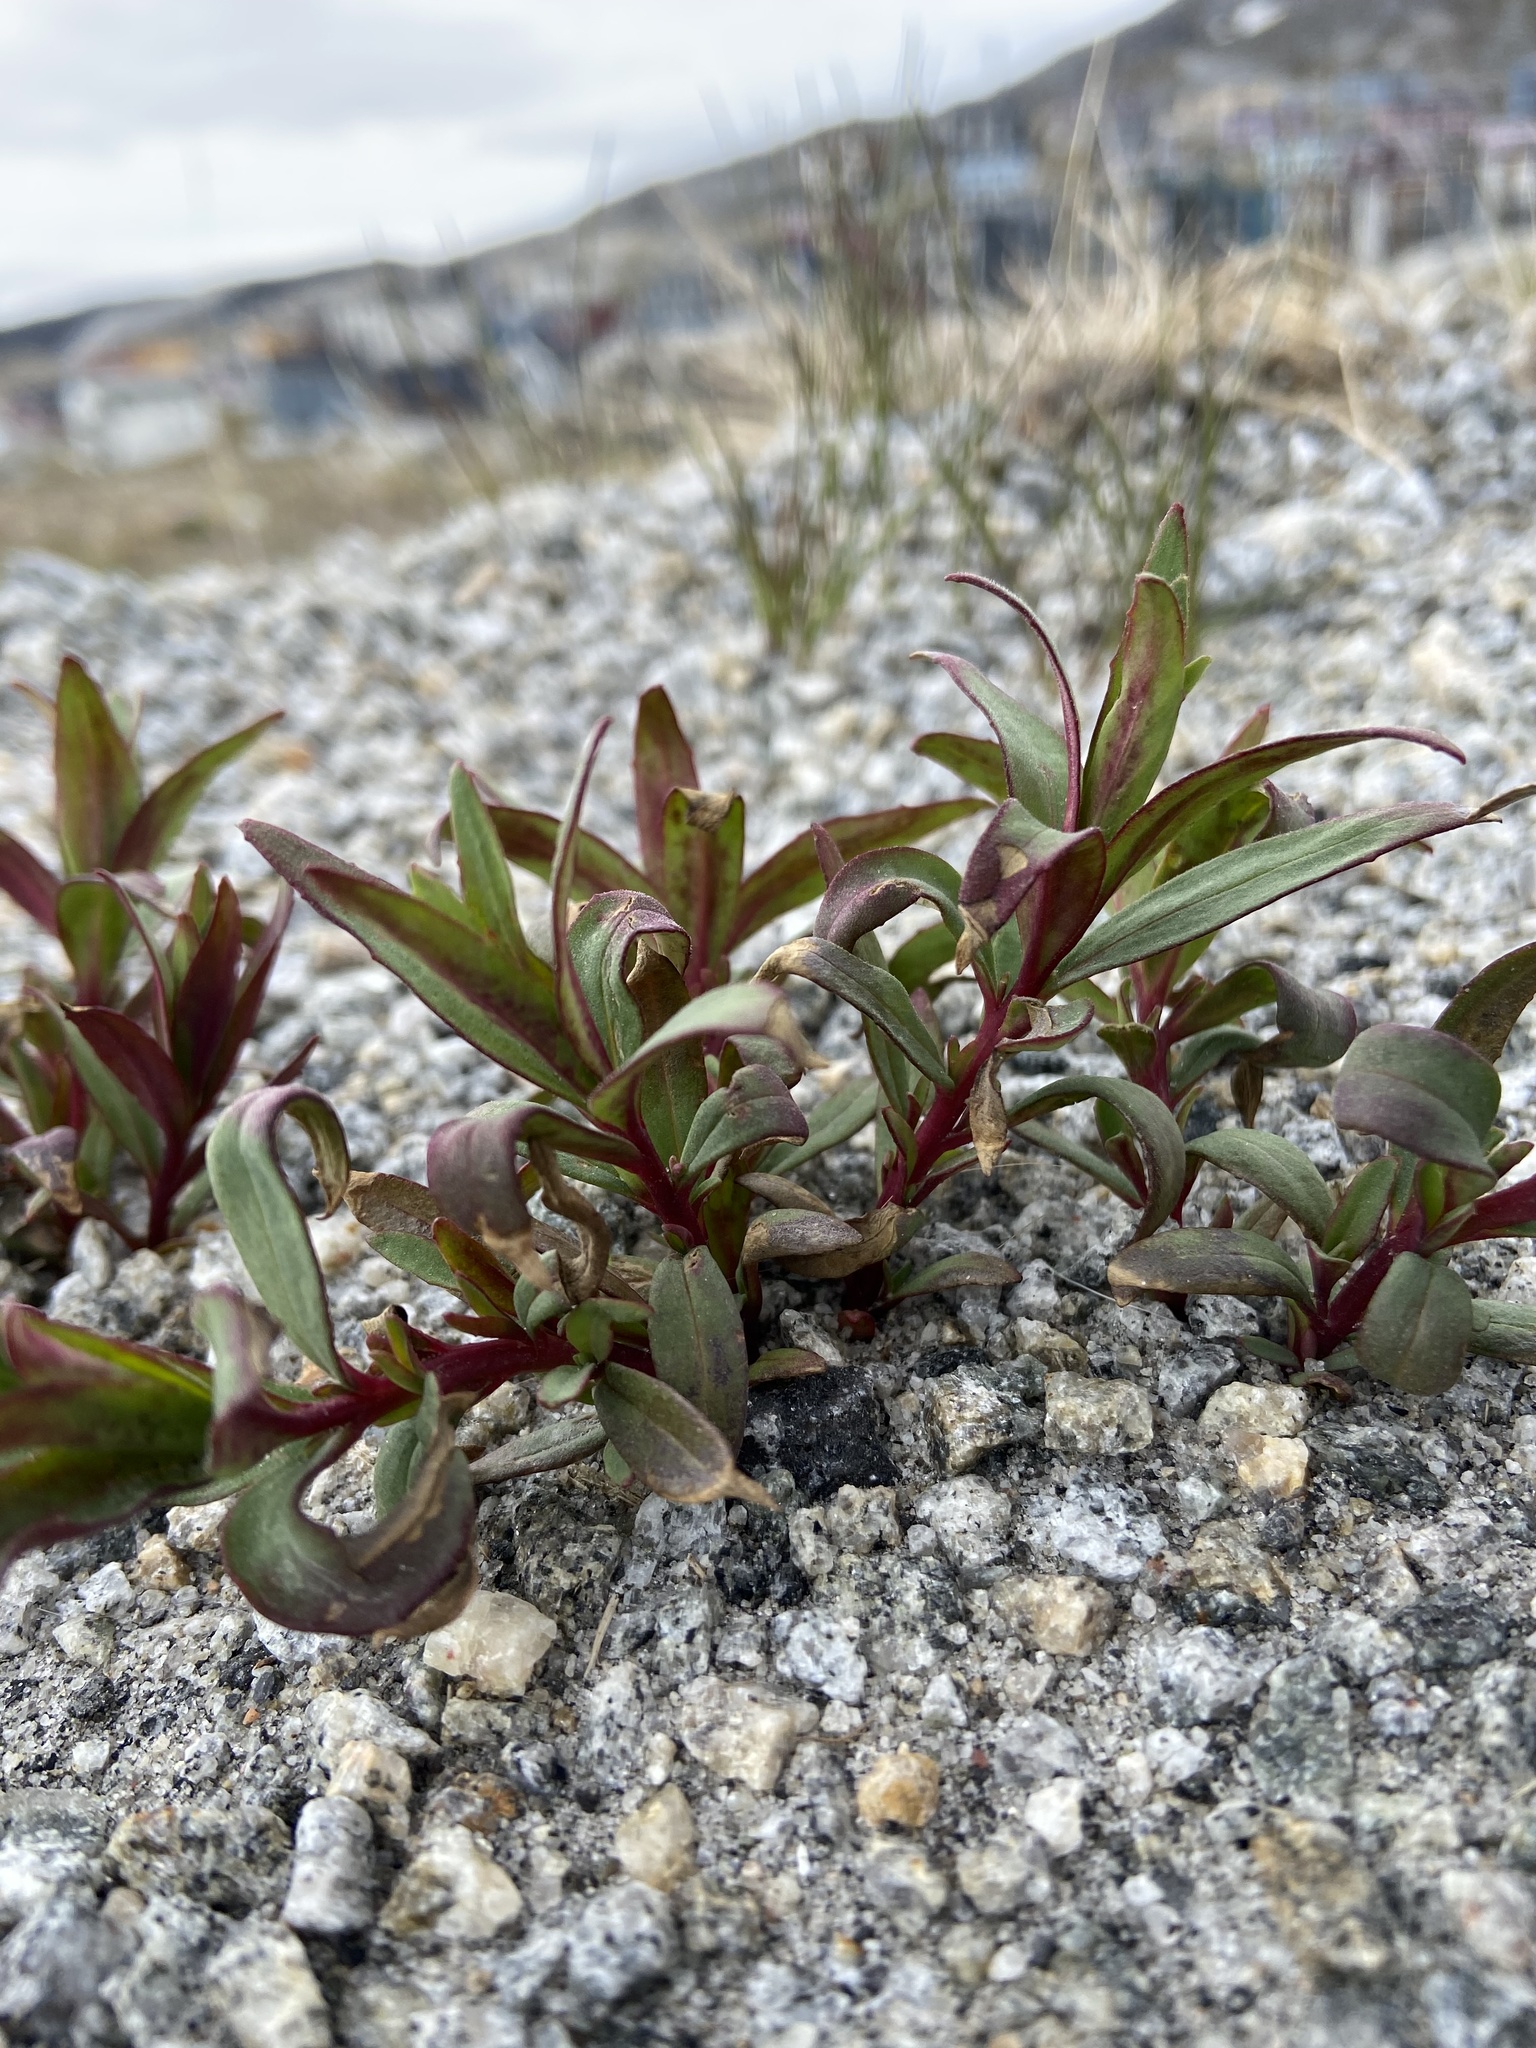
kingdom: Plantae
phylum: Tracheophyta
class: Magnoliopsida
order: Myrtales
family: Onagraceae
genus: Chamaenerion
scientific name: Chamaenerion latifolium
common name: Dwarf fireweed
